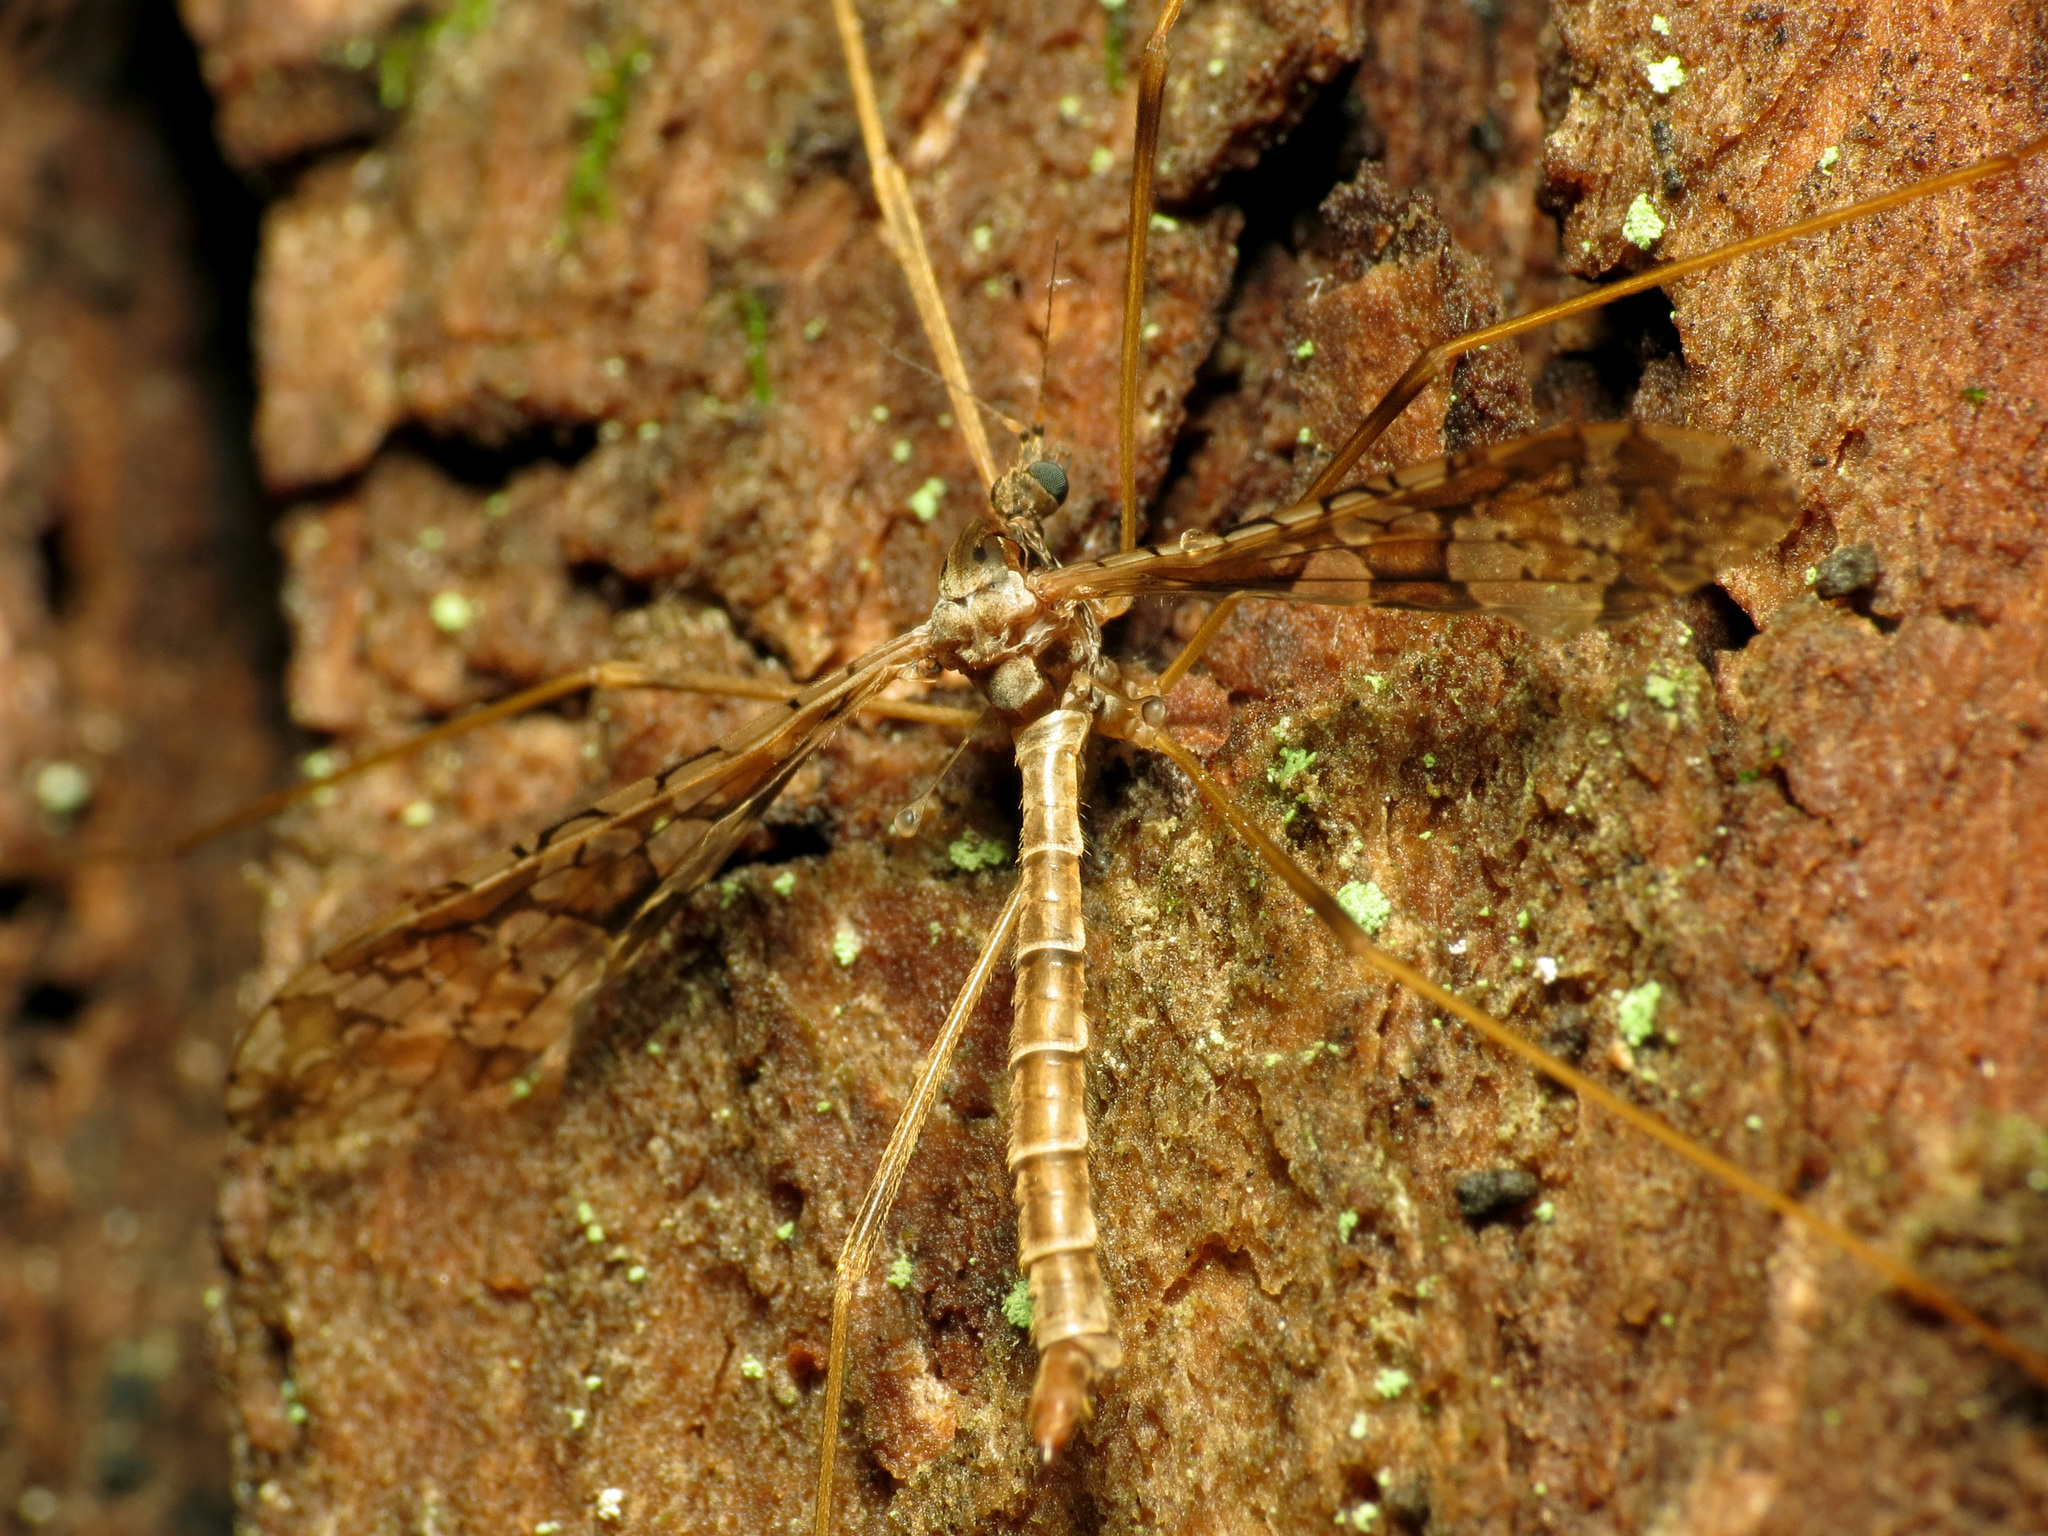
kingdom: Animalia
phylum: Arthropoda
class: Insecta
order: Diptera
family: Limoniidae
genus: Epiphragma
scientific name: Epiphragma solatrix
